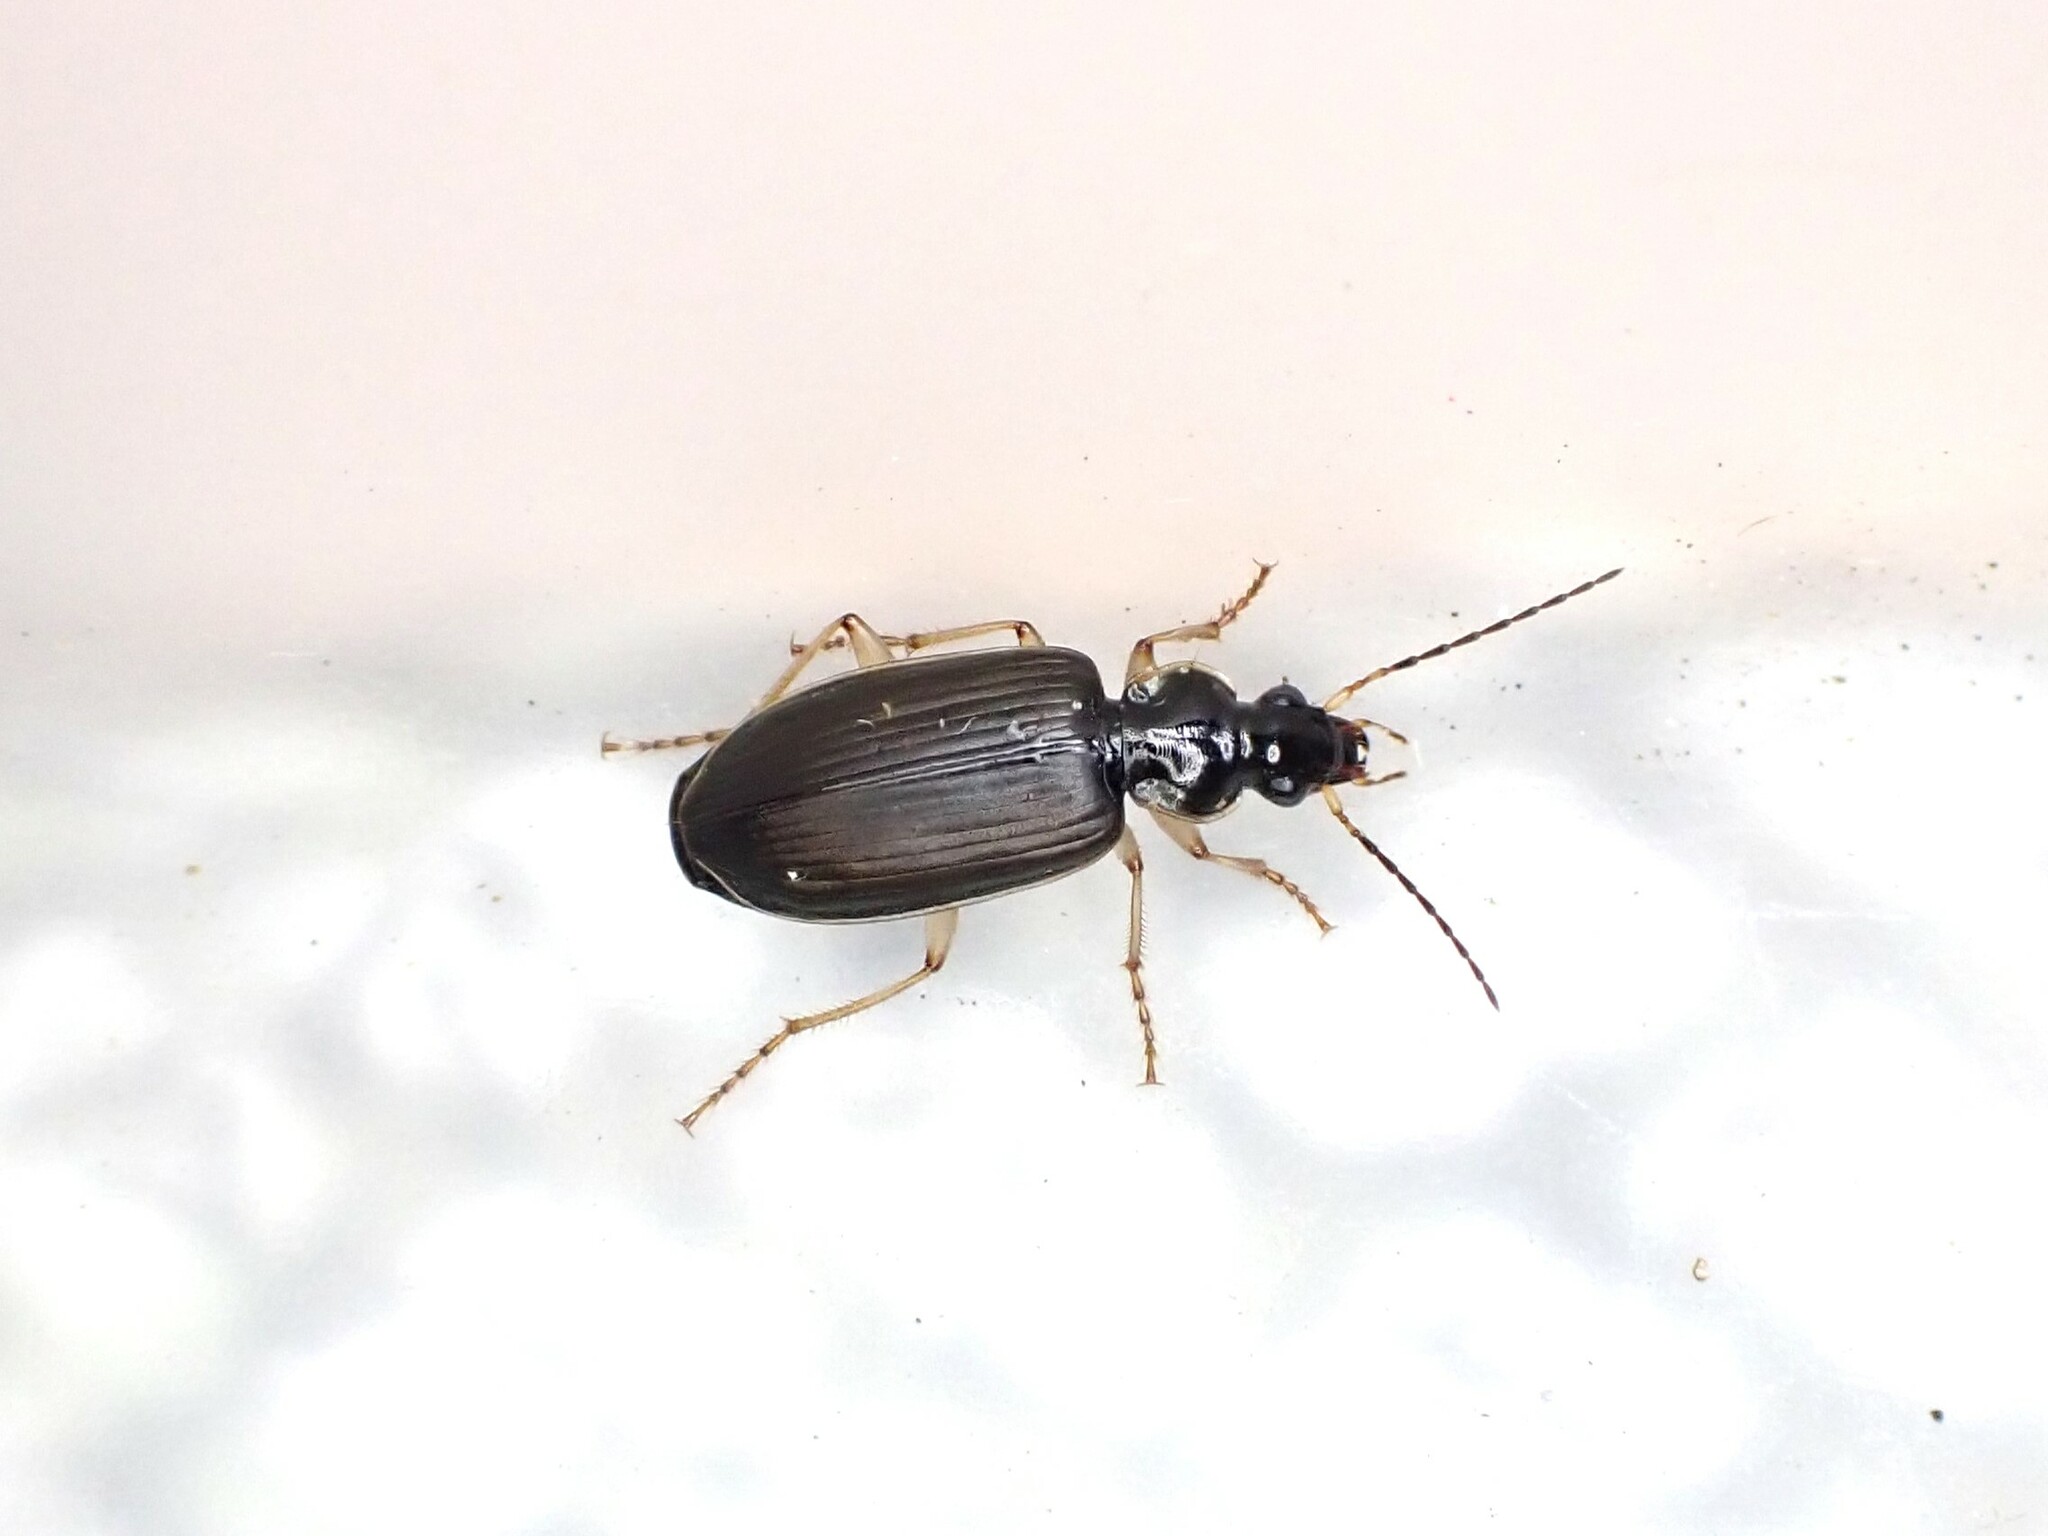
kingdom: Animalia
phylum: Arthropoda
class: Insecta
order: Coleoptera
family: Carabidae
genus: Notagonum
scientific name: Notagonum submetallicum
